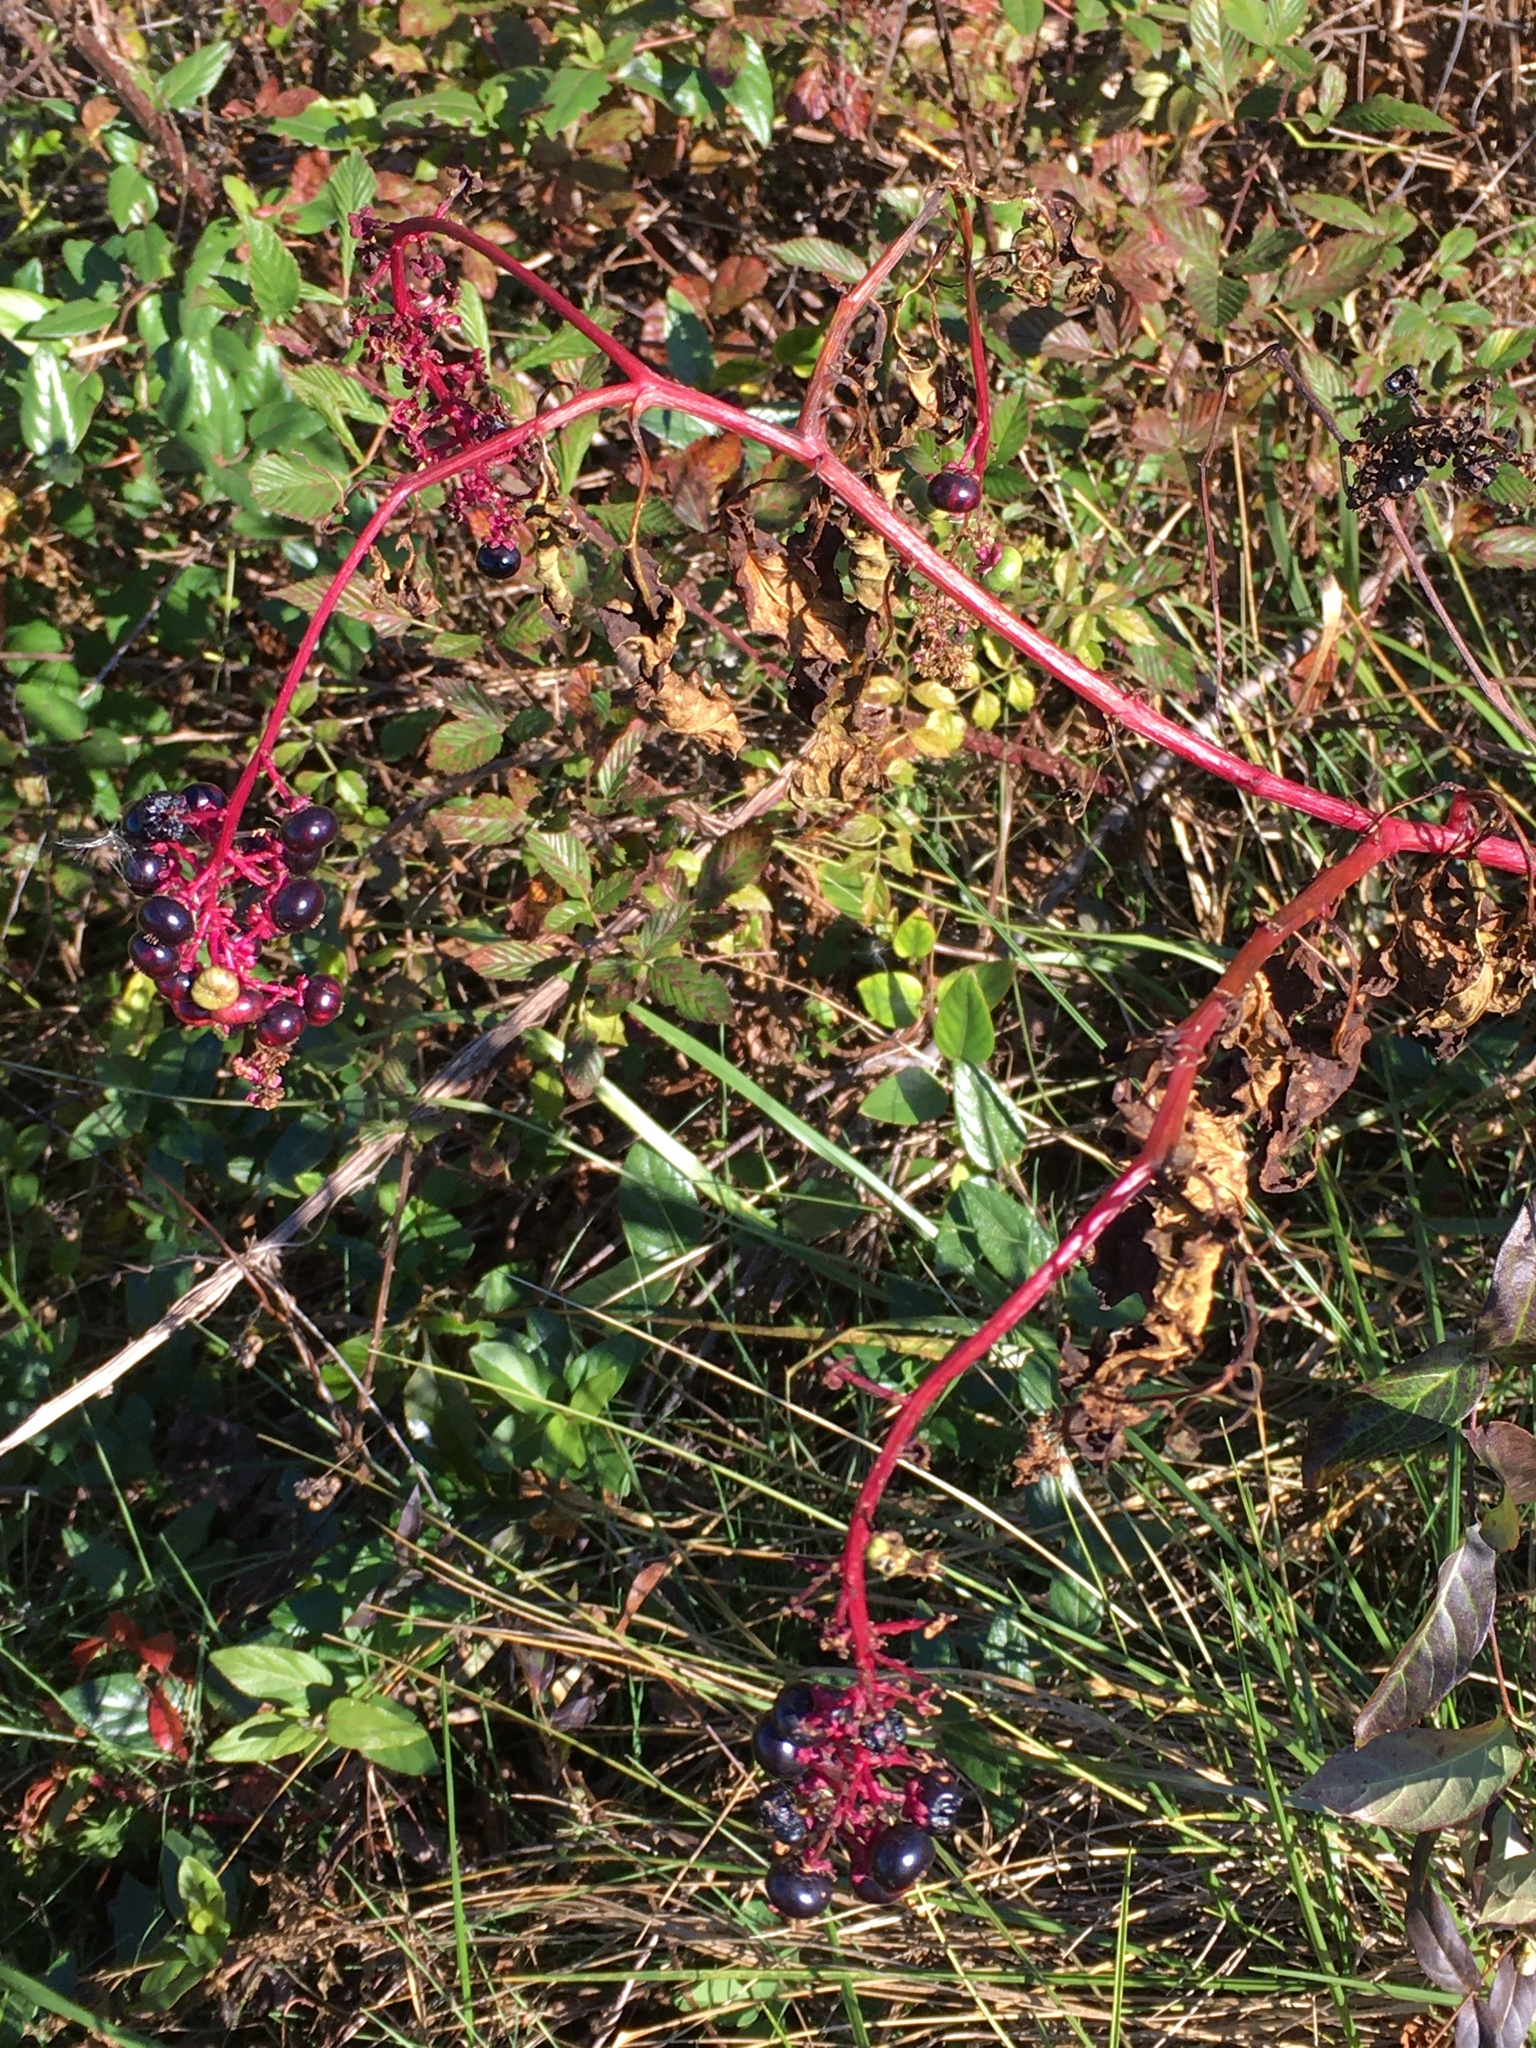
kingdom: Plantae
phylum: Tracheophyta
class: Magnoliopsida
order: Caryophyllales
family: Phytolaccaceae
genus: Phytolacca
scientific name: Phytolacca americana
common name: American pokeweed
